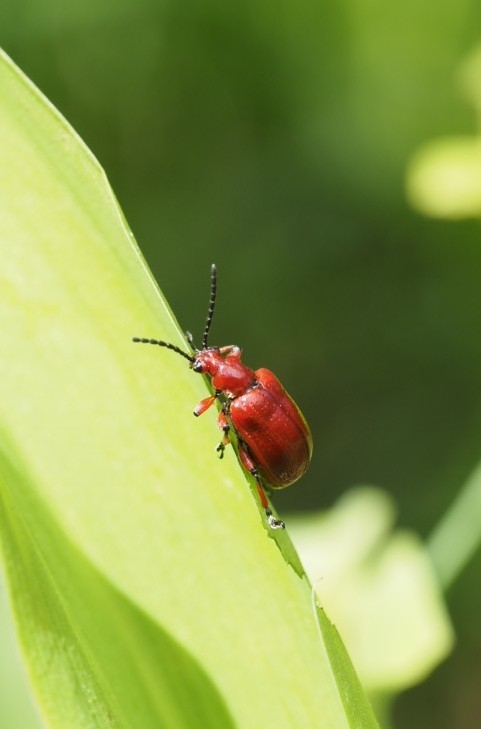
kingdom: Animalia
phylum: Arthropoda
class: Insecta
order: Coleoptera
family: Chrysomelidae
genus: Lilioceris
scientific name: Lilioceris merdigera
